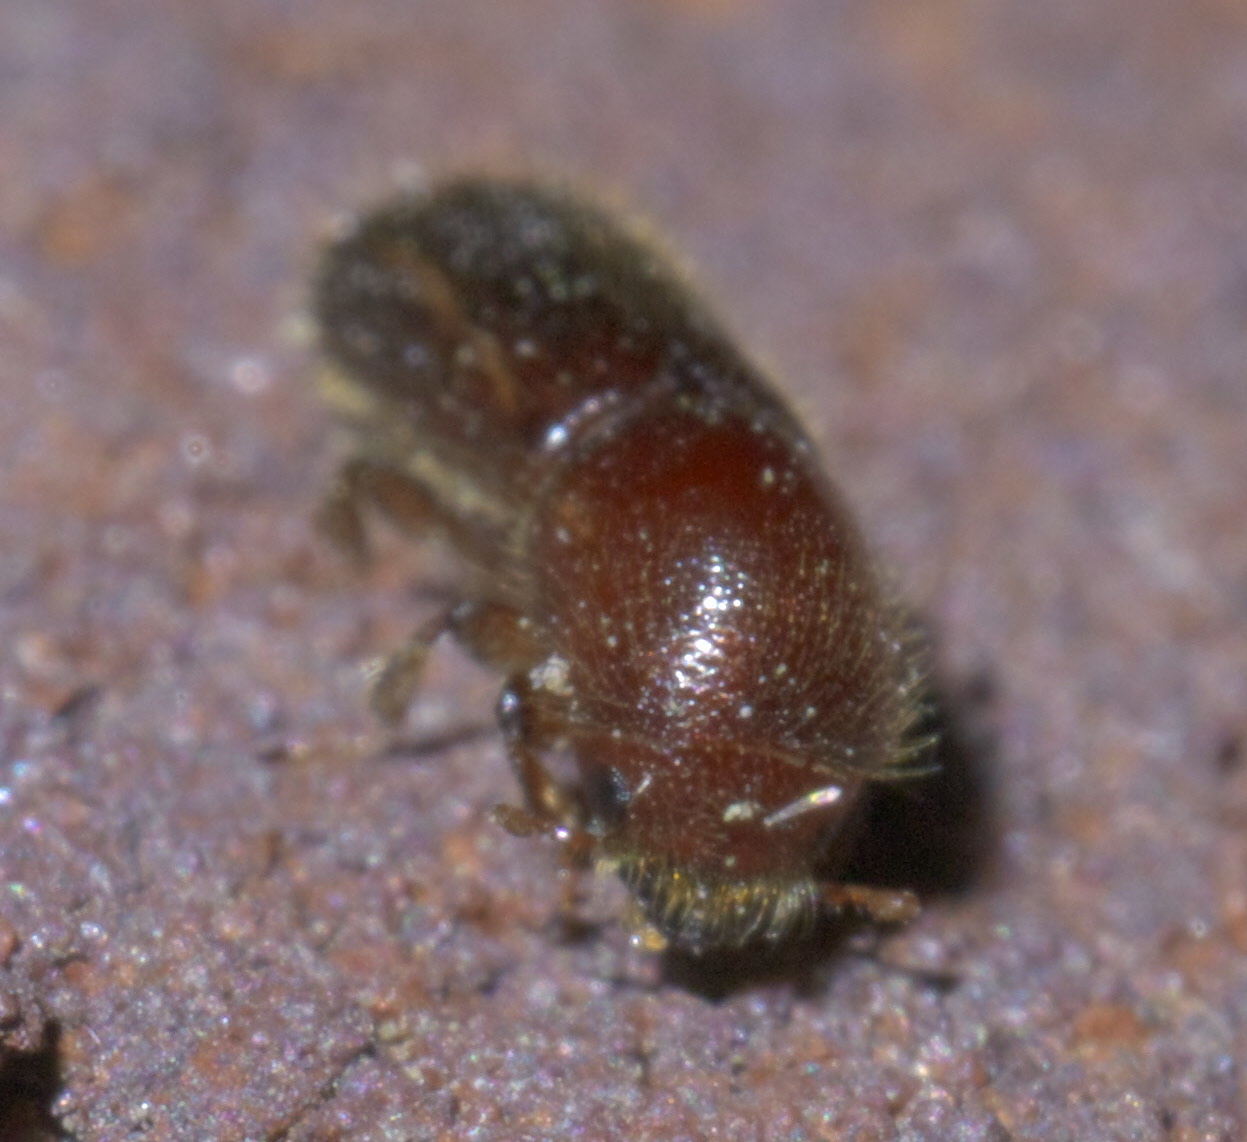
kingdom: Animalia
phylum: Arthropoda
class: Insecta
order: Coleoptera
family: Curculionidae
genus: Xyleborus
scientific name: Xyleborus celsus
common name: Weevil
